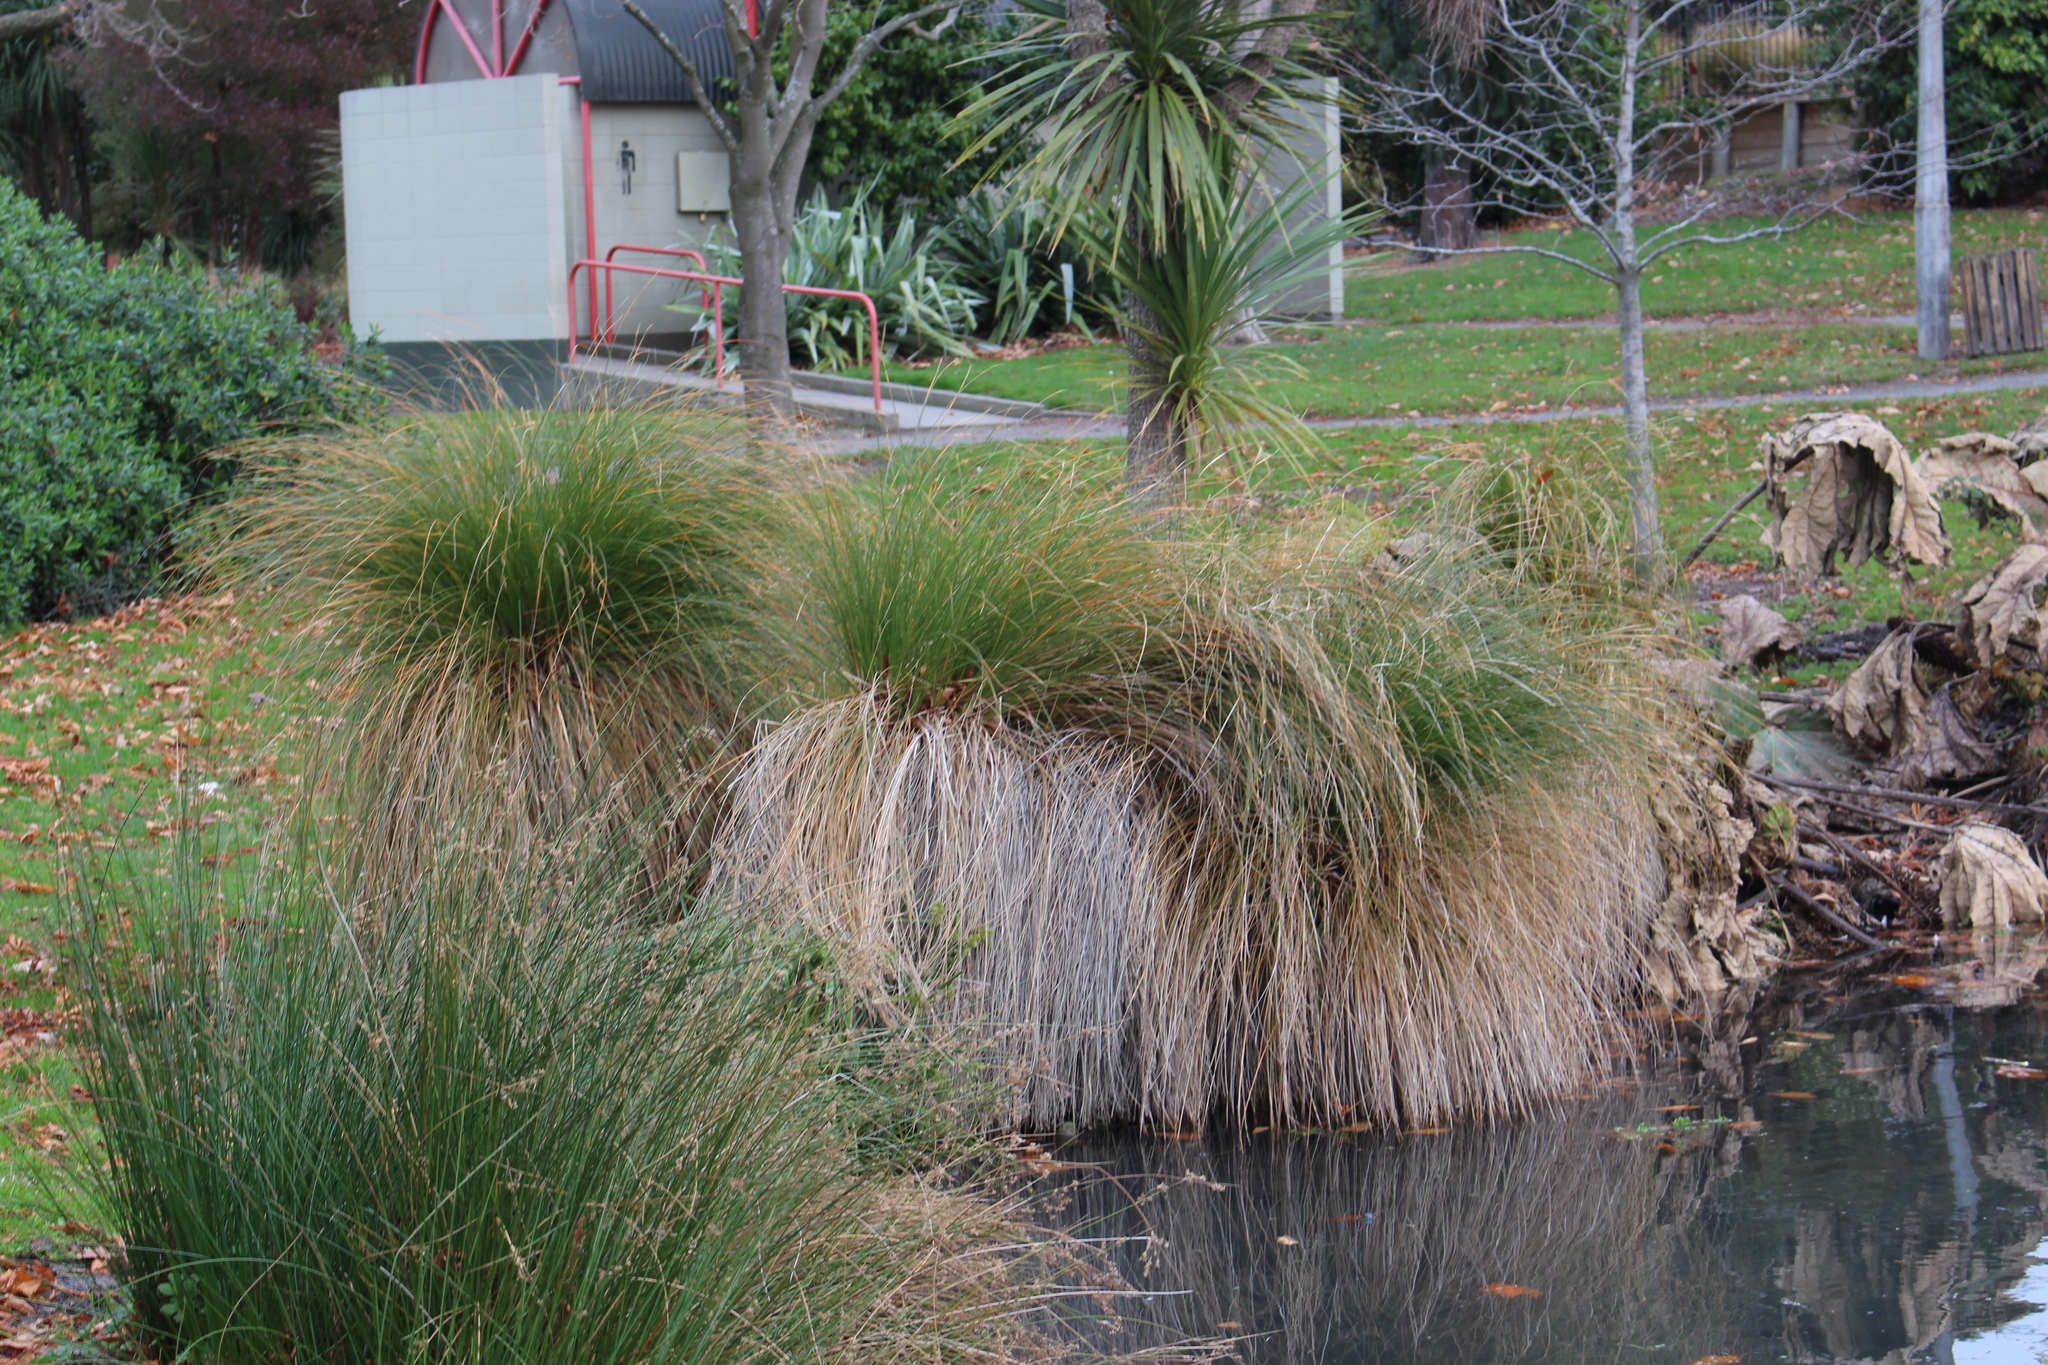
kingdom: Plantae
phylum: Tracheophyta
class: Liliopsida
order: Poales
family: Cyperaceae
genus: Carex
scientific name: Carex secta
